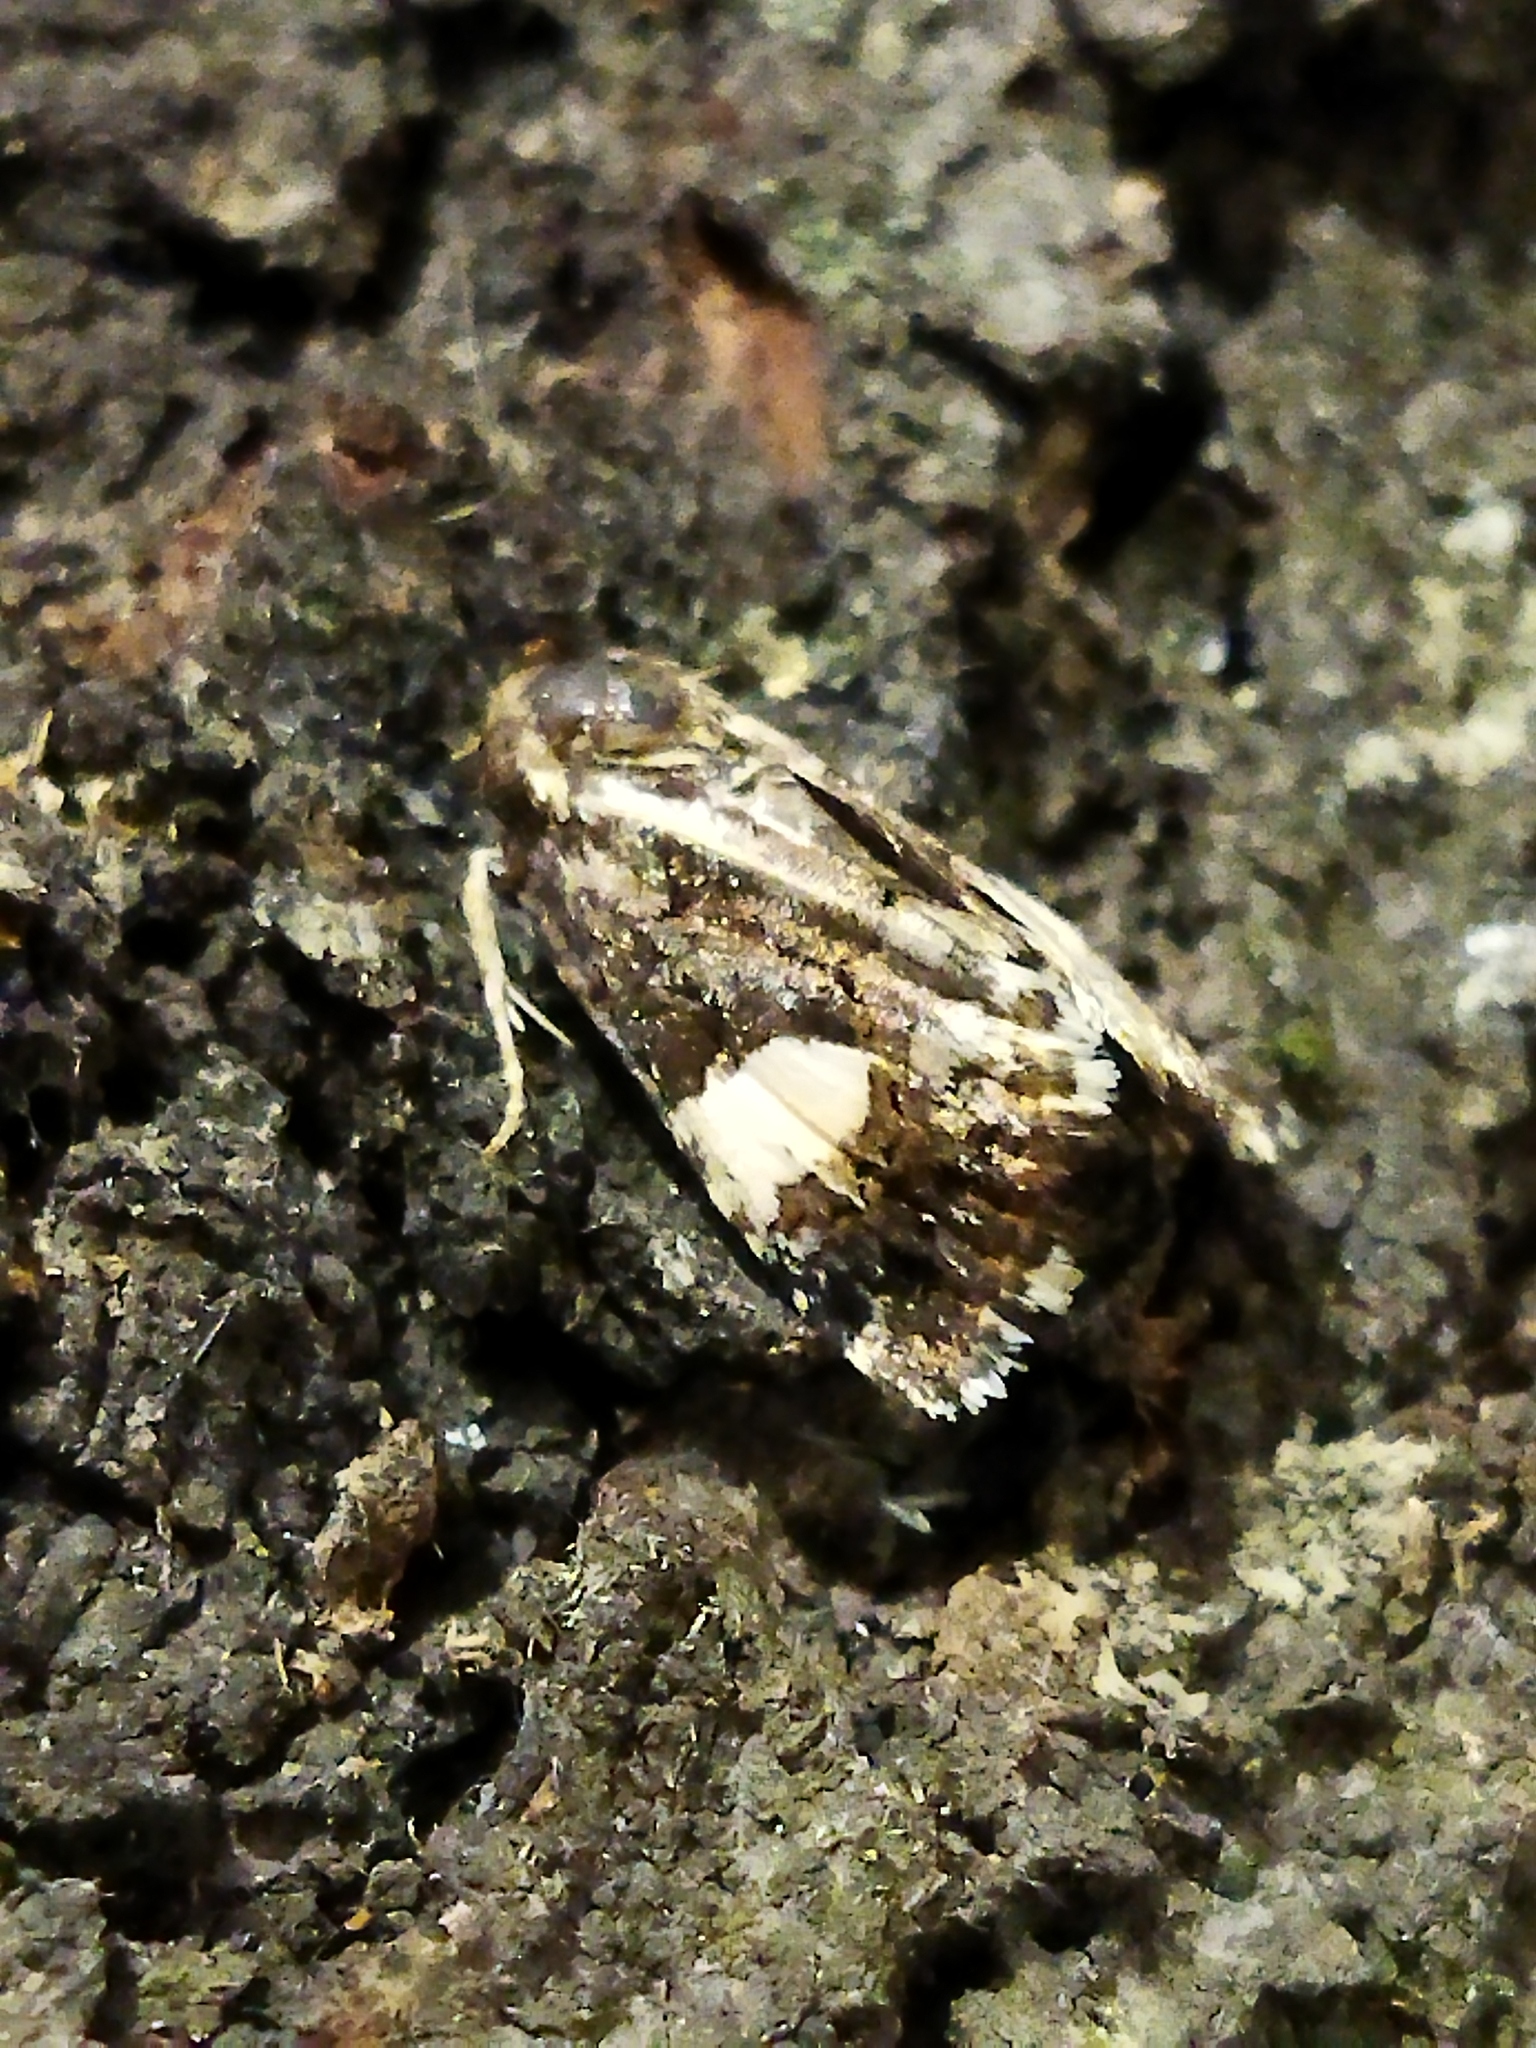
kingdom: Animalia
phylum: Arthropoda
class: Insecta
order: Lepidoptera
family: Erebidae
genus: Tyta
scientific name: Tyta luctuosa
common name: Four-spotted
